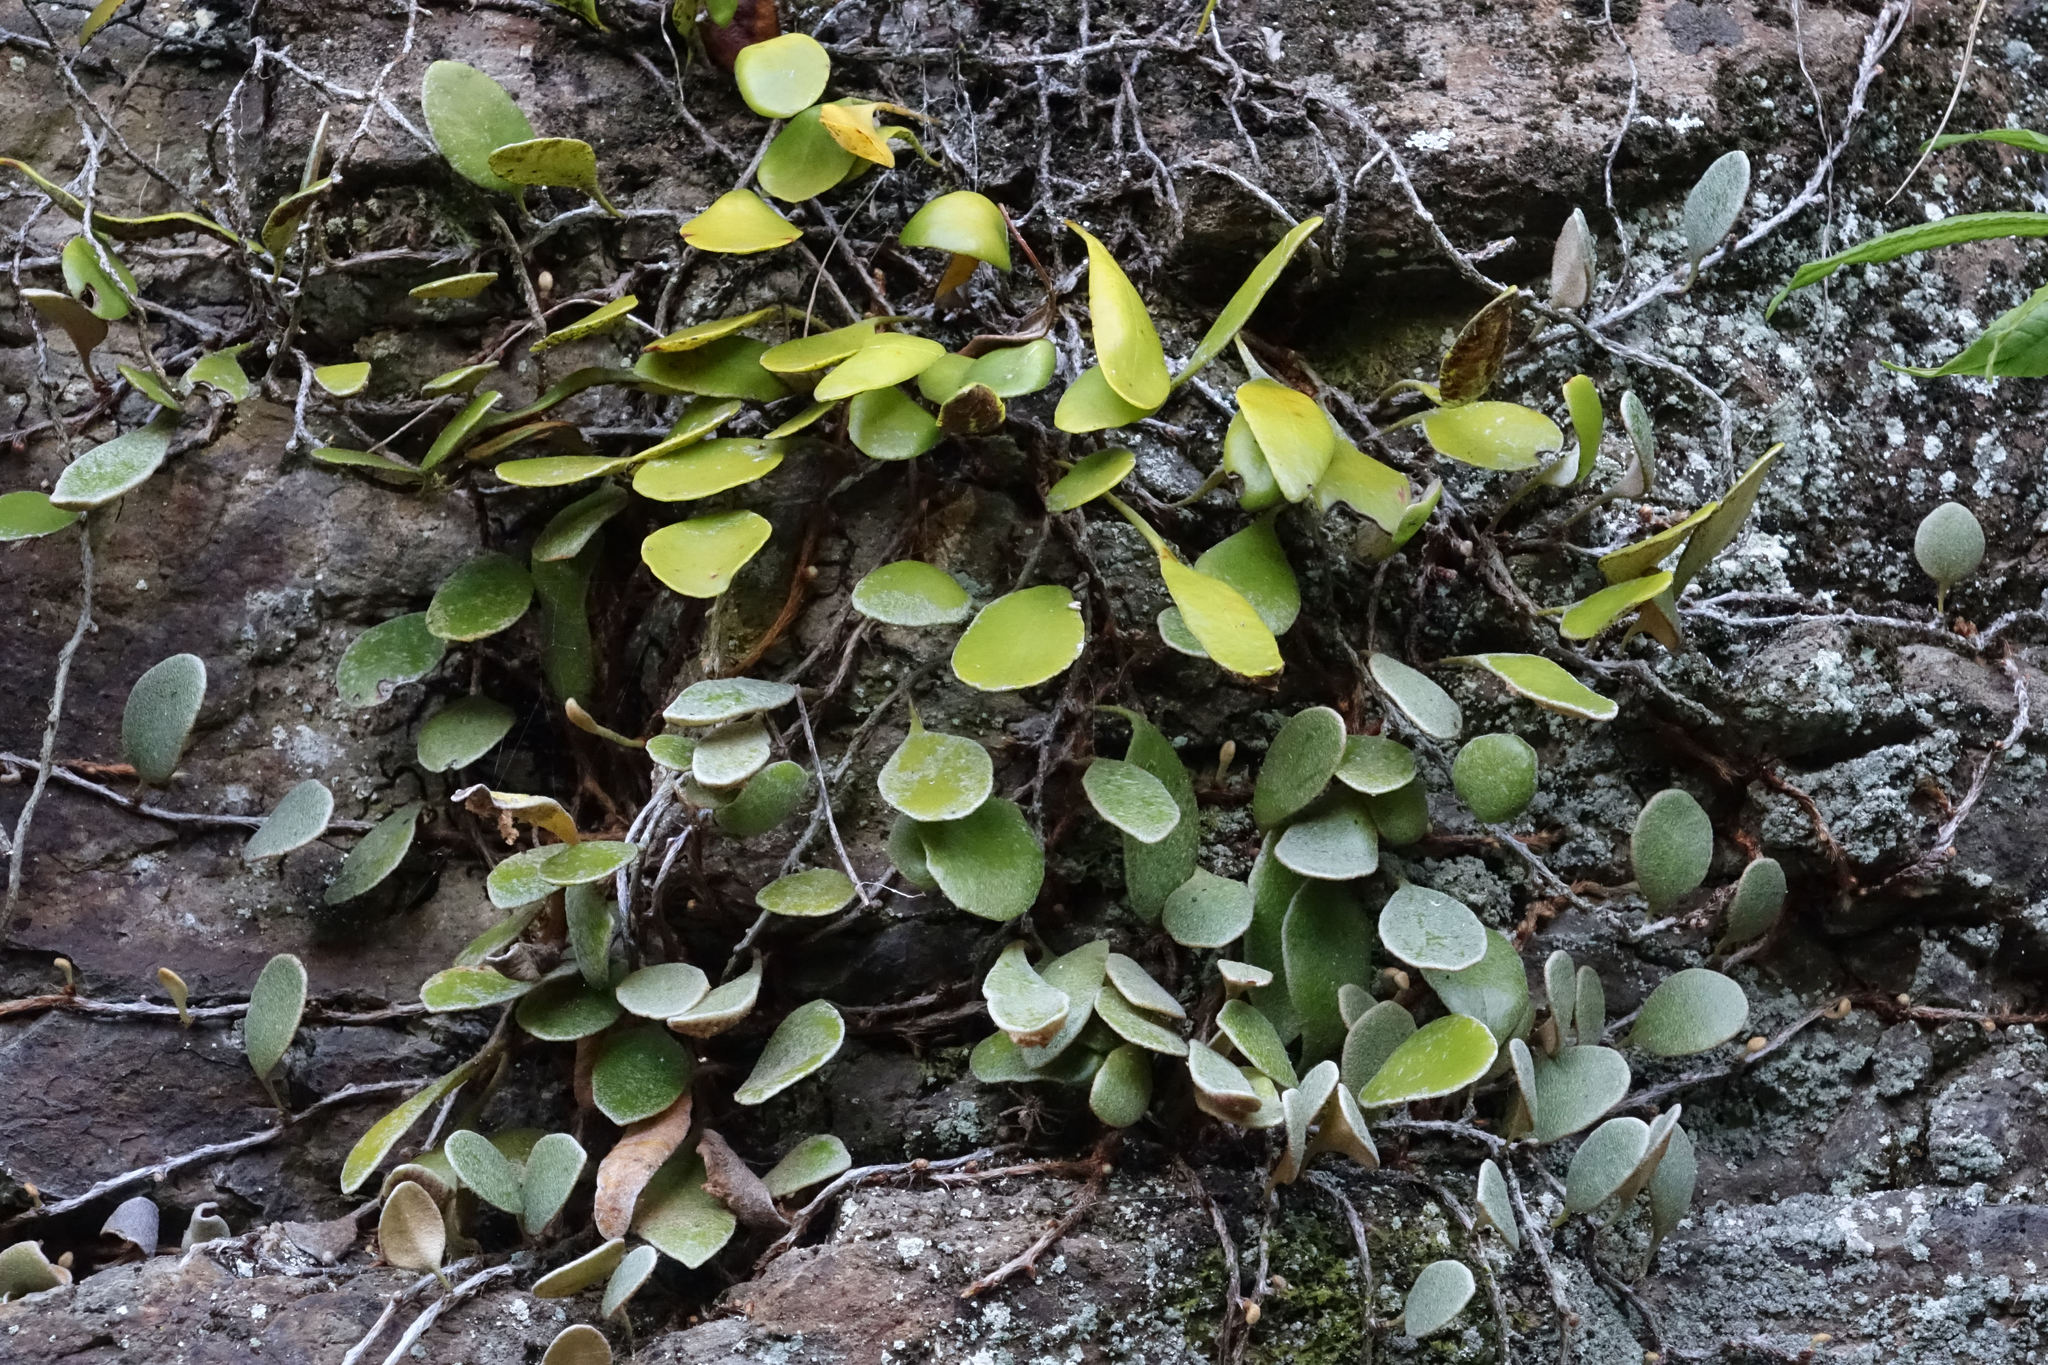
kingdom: Plantae
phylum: Tracheophyta
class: Polypodiopsida
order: Polypodiales
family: Polypodiaceae
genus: Pyrrosia
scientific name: Pyrrosia eleagnifolia
